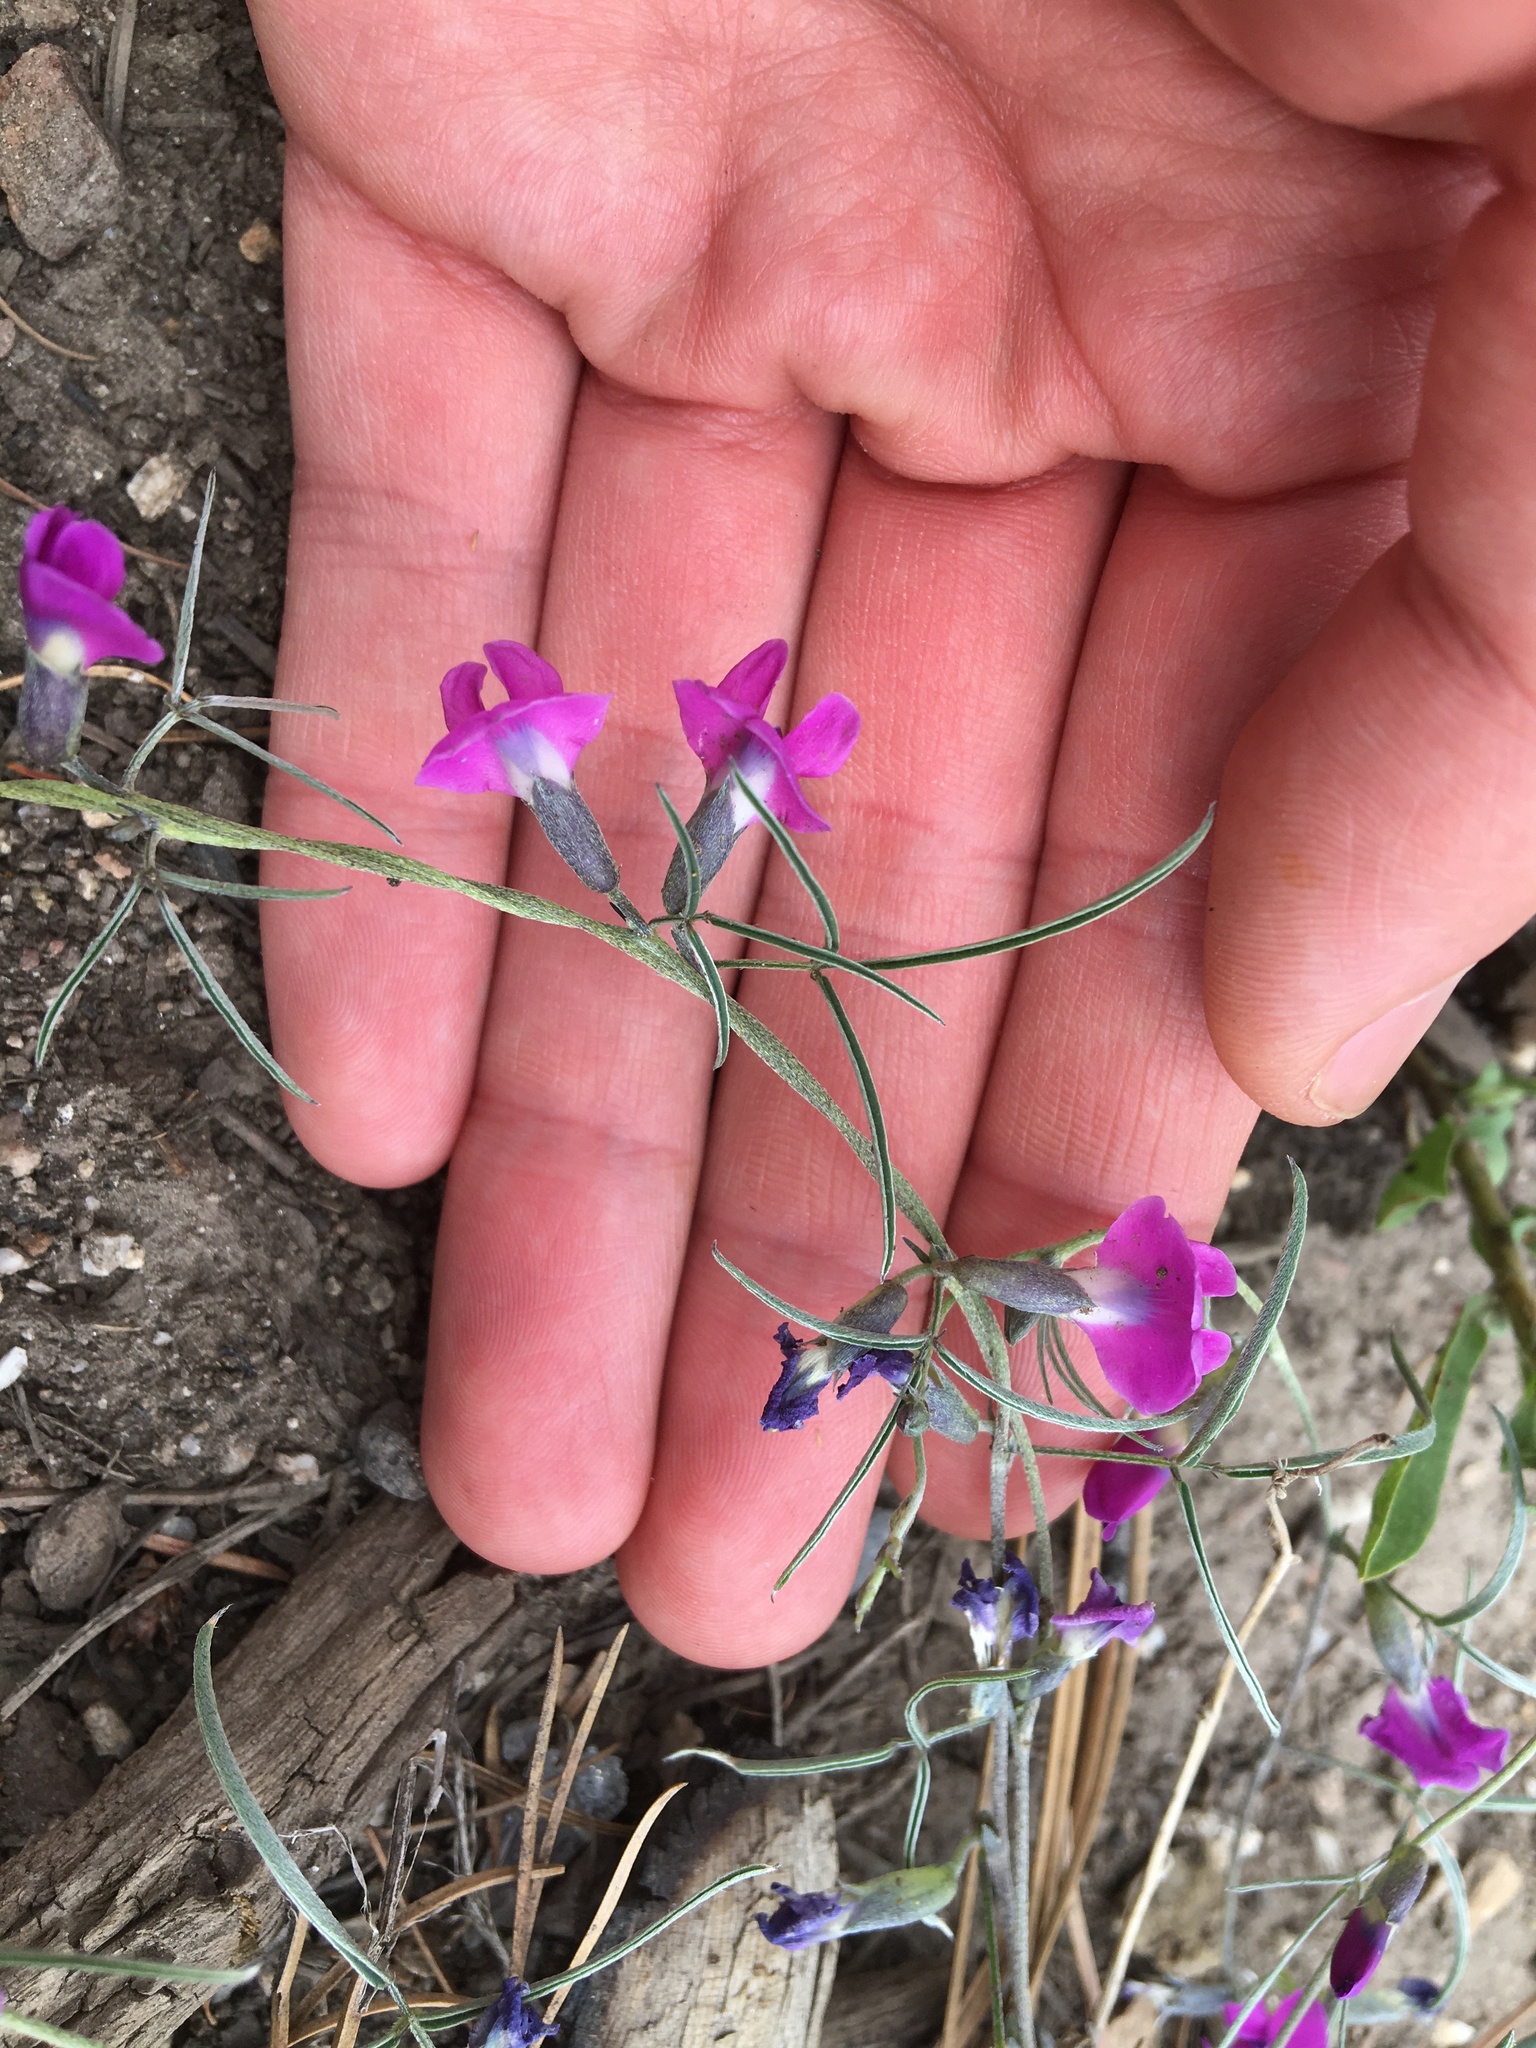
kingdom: Plantae
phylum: Tracheophyta
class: Magnoliopsida
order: Fabales
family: Fabaceae
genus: Cologania
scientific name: Cologania angustifolia
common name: Longleaf cologania
